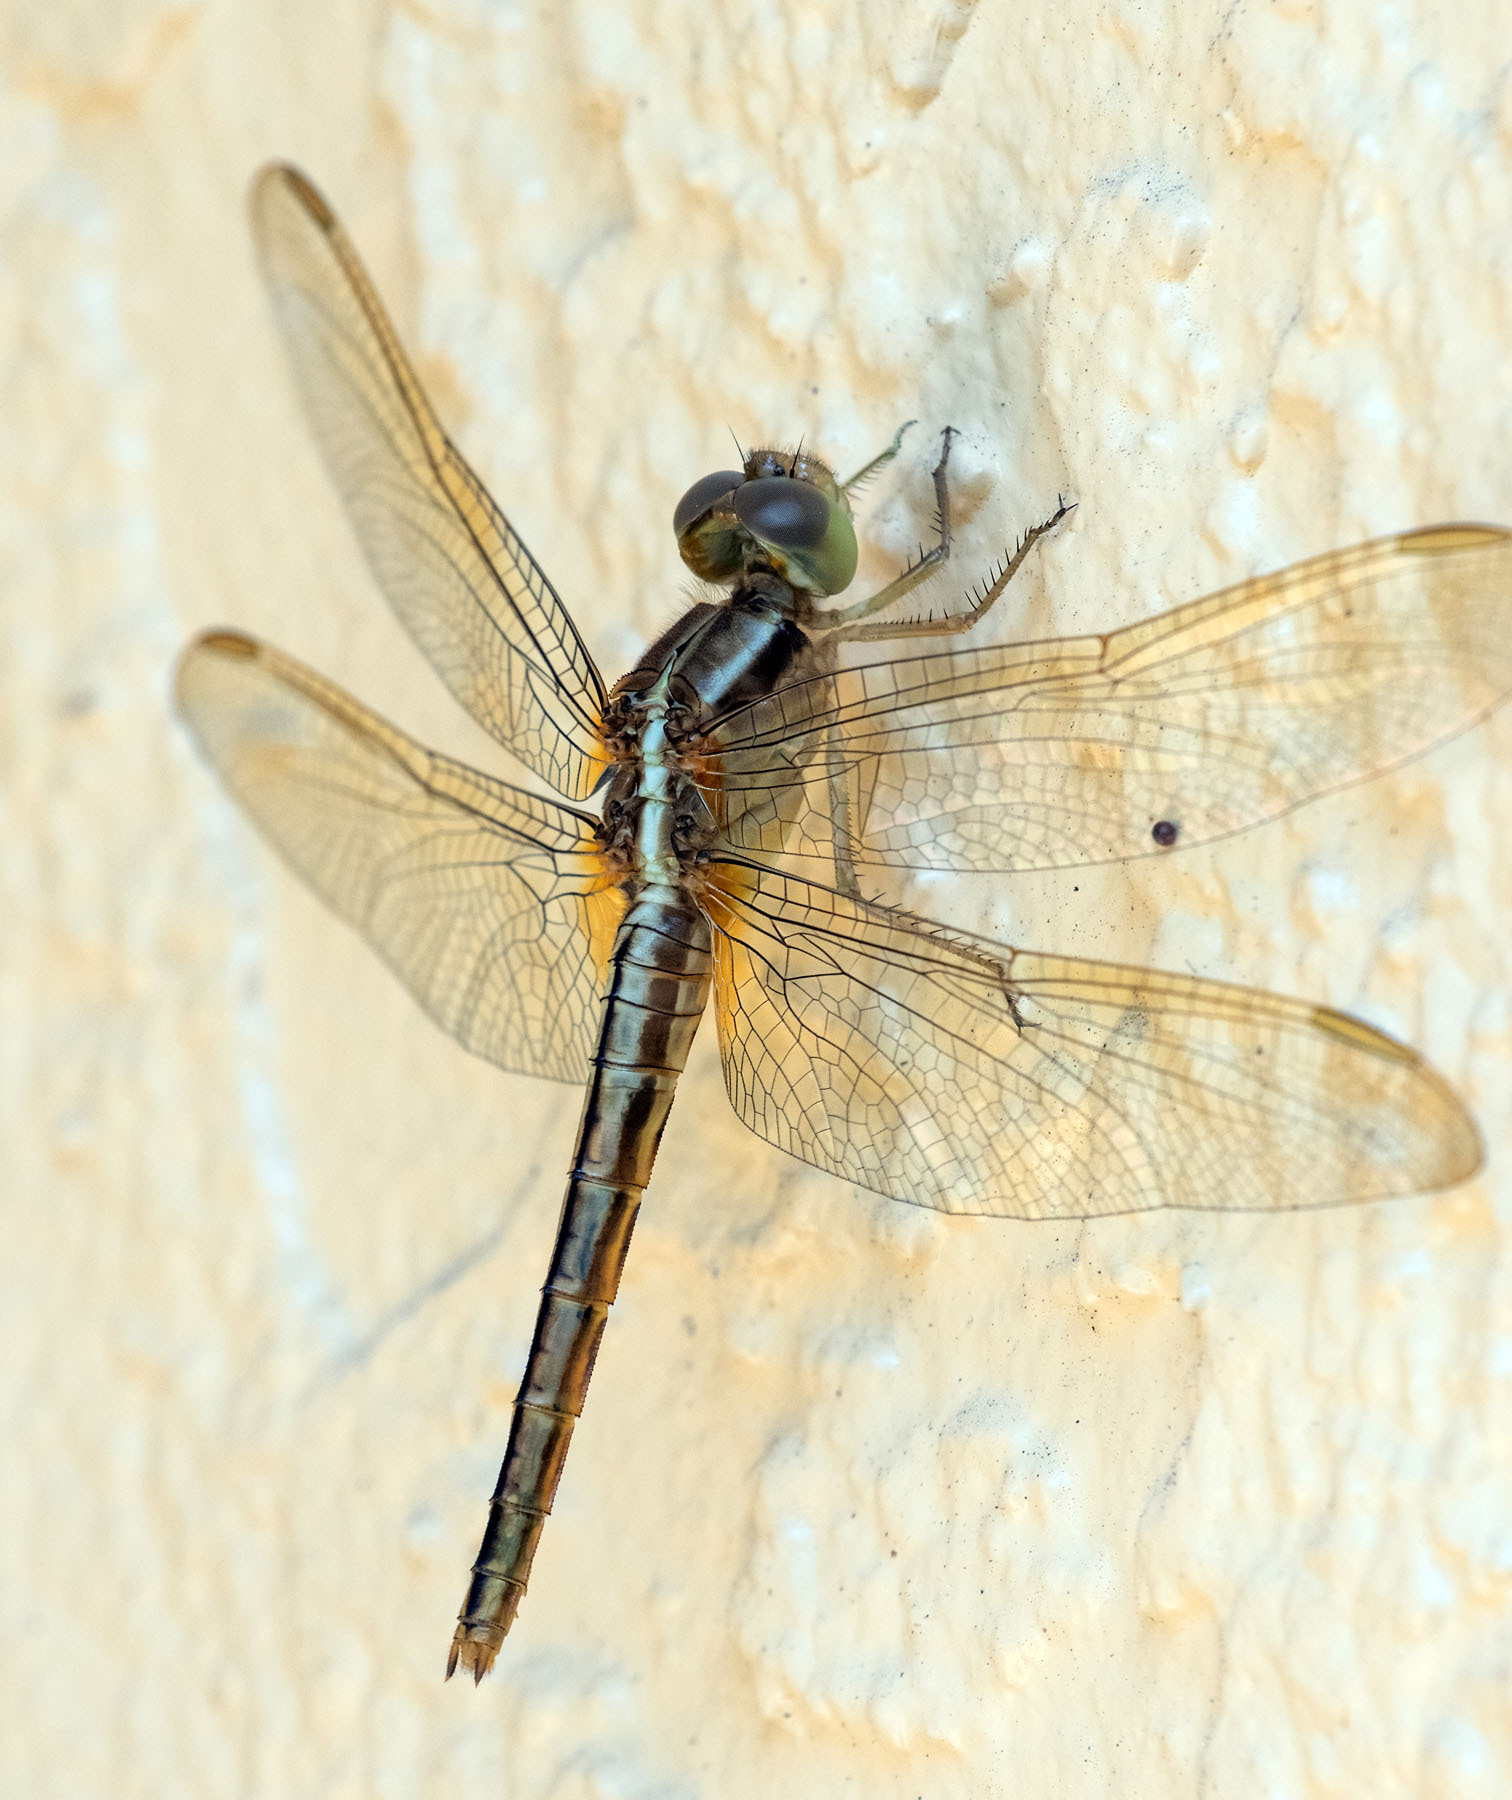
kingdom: Animalia
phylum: Arthropoda
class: Insecta
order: Odonata
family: Libellulidae
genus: Crocothemis
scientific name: Crocothemis servilia
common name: Scarlet skimmer
